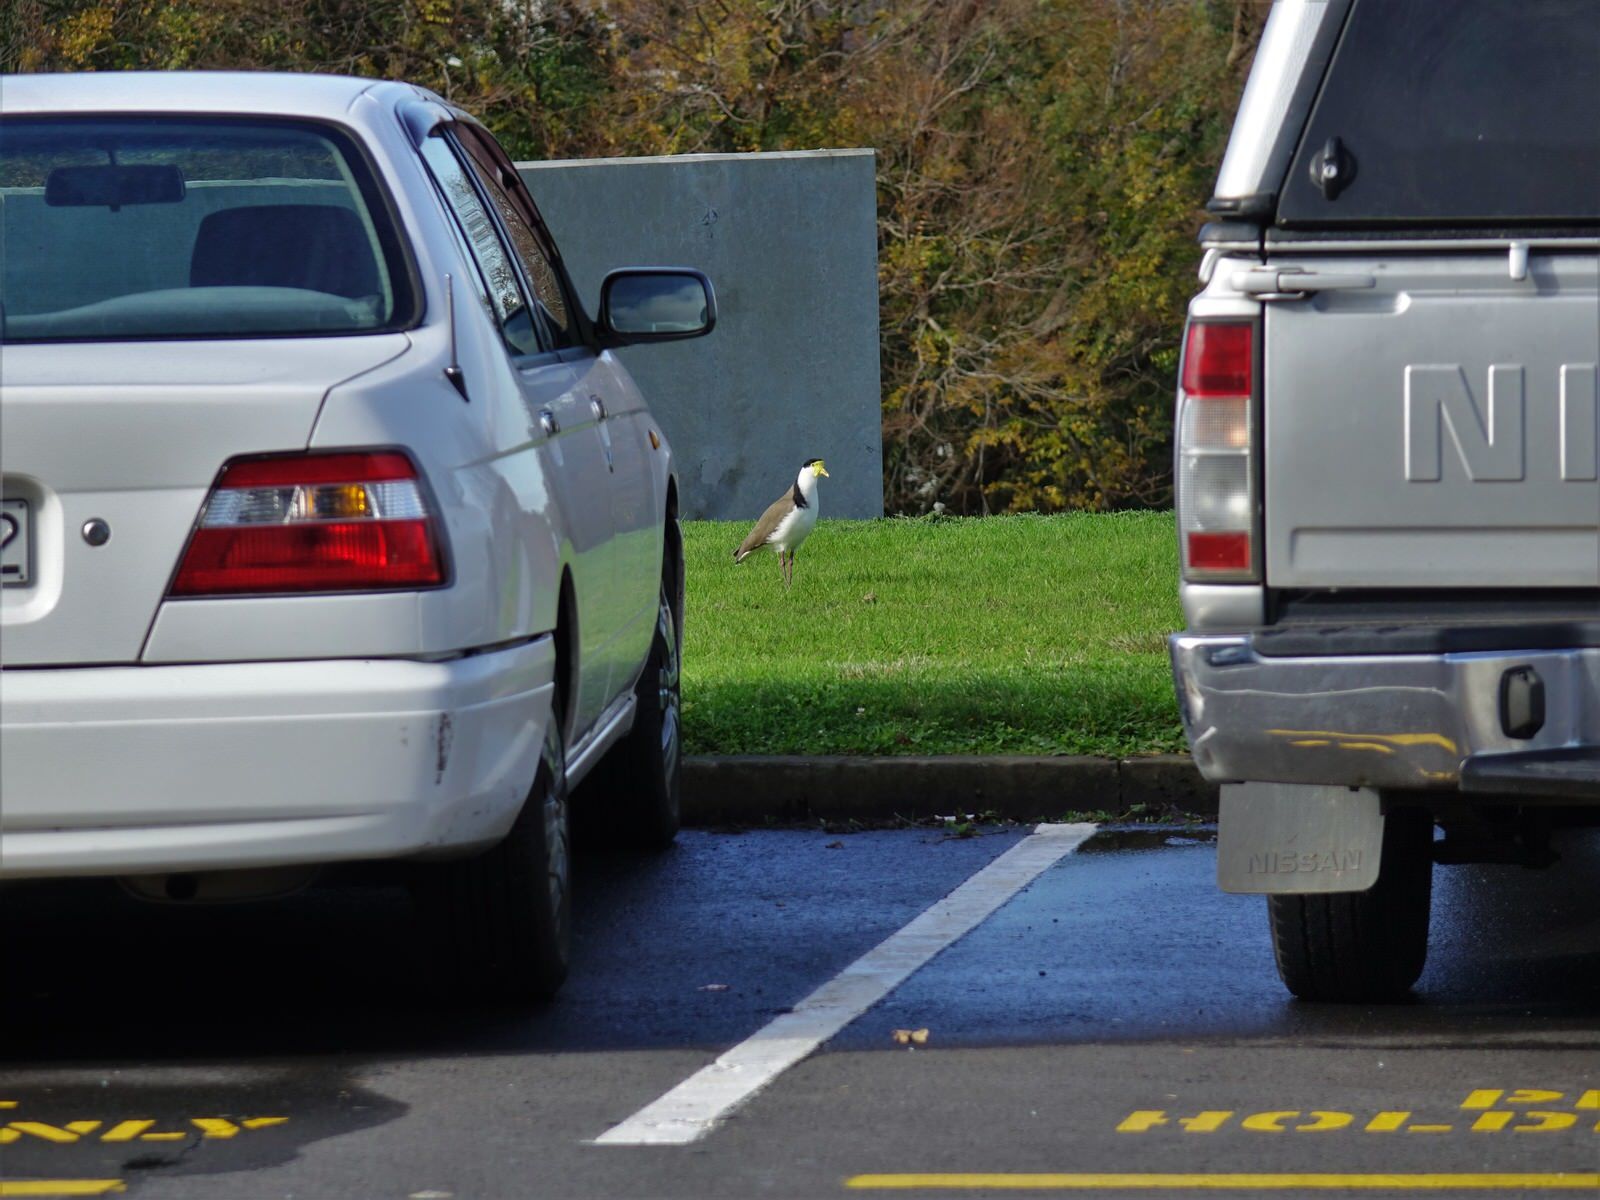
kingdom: Animalia
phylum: Chordata
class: Aves
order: Charadriiformes
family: Charadriidae
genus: Vanellus
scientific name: Vanellus miles
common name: Masked lapwing
